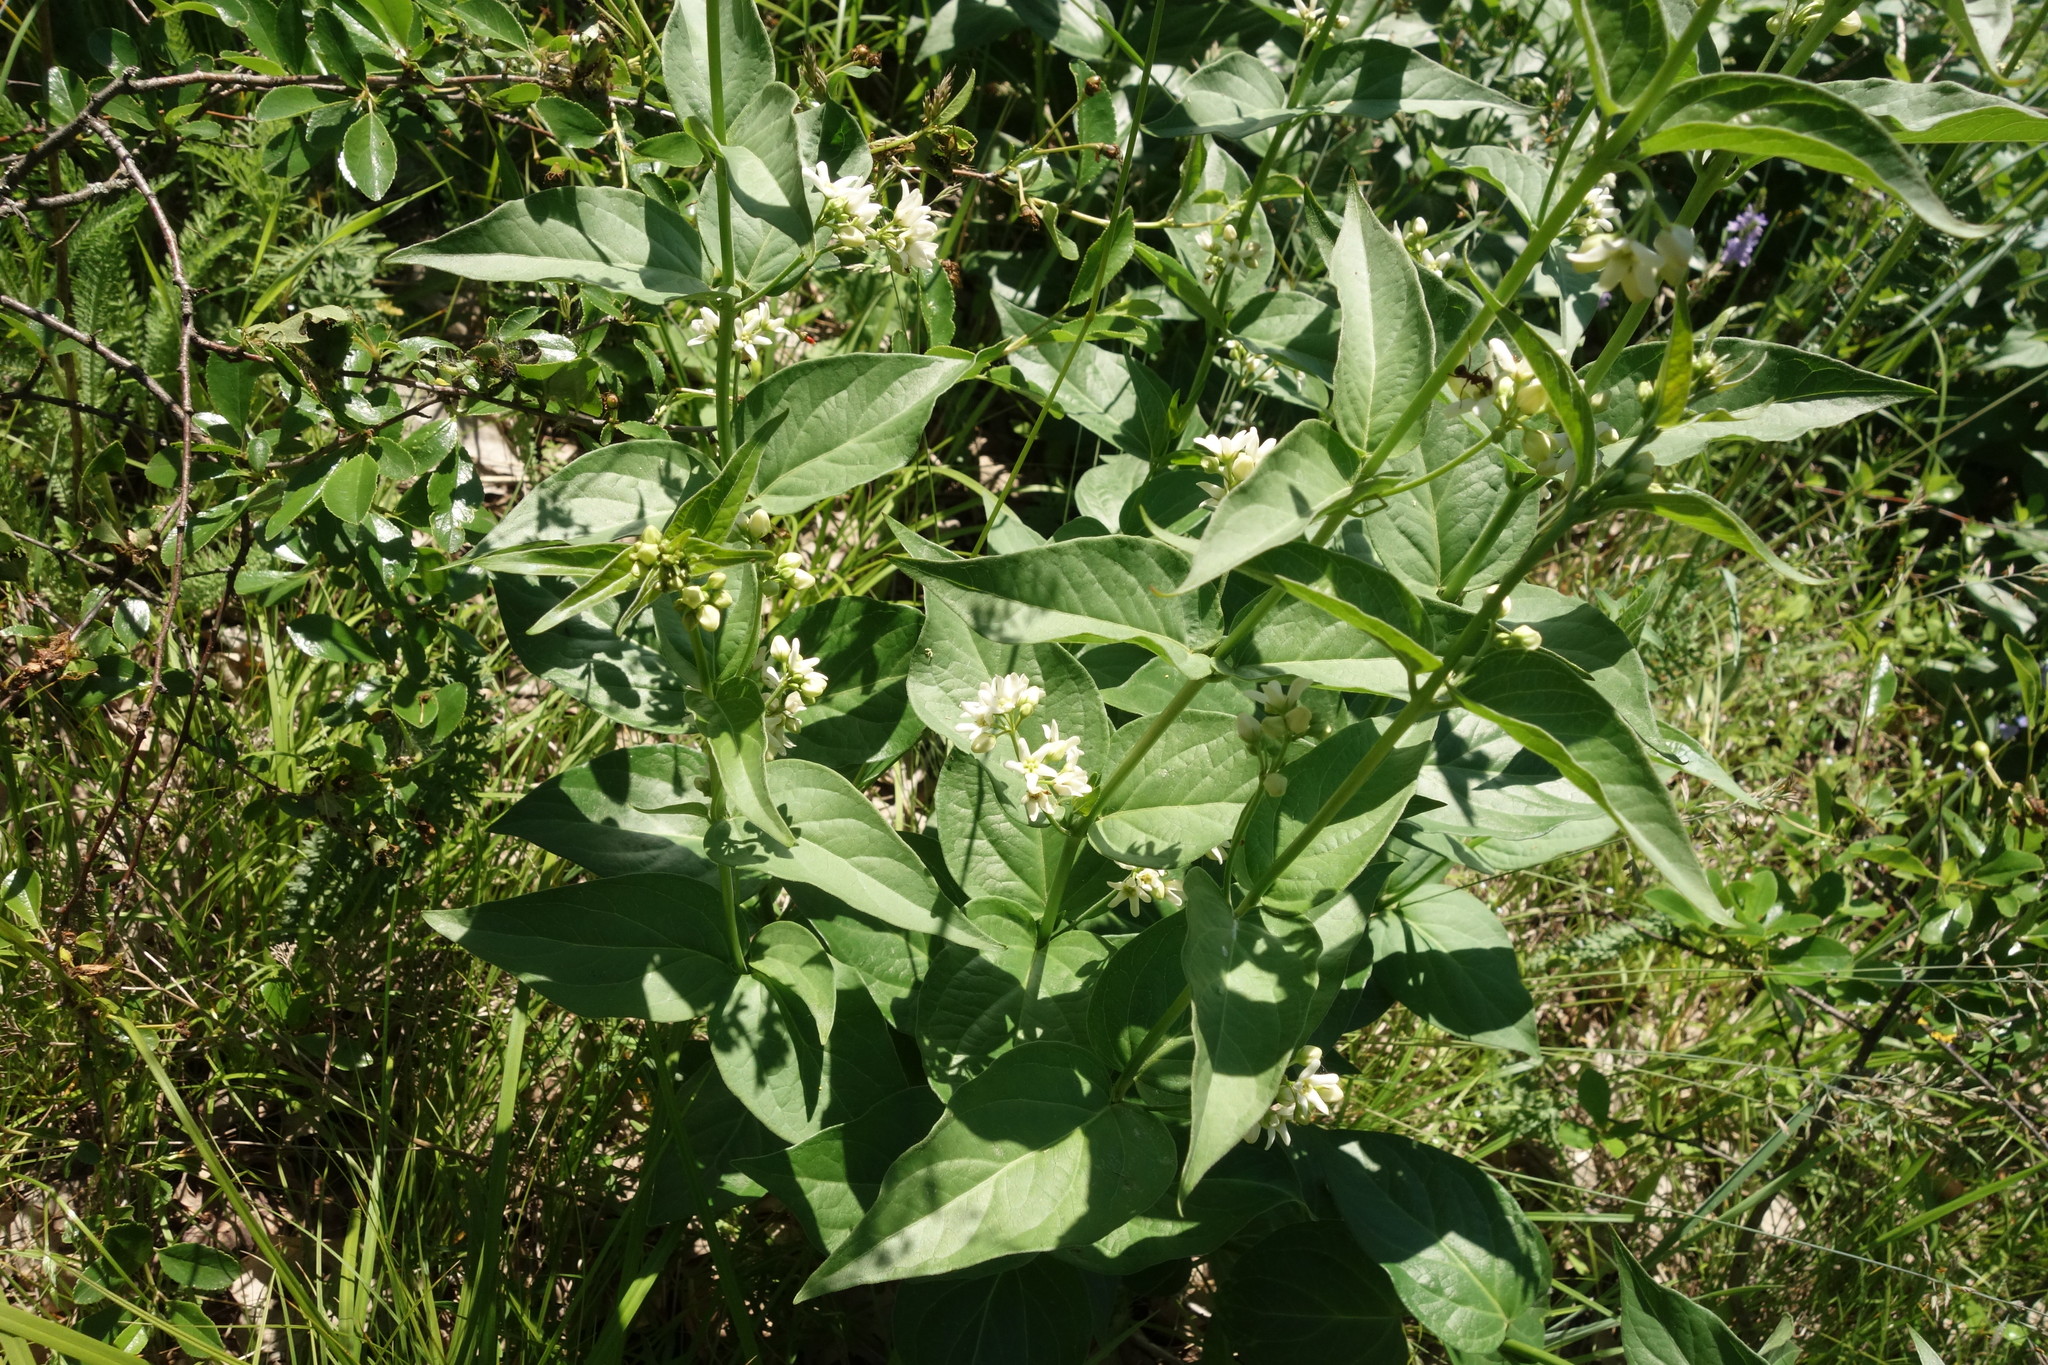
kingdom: Plantae
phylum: Tracheophyta
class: Magnoliopsida
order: Gentianales
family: Apocynaceae
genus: Vincetoxicum
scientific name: Vincetoxicum hirundinaria
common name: White swallowwort
